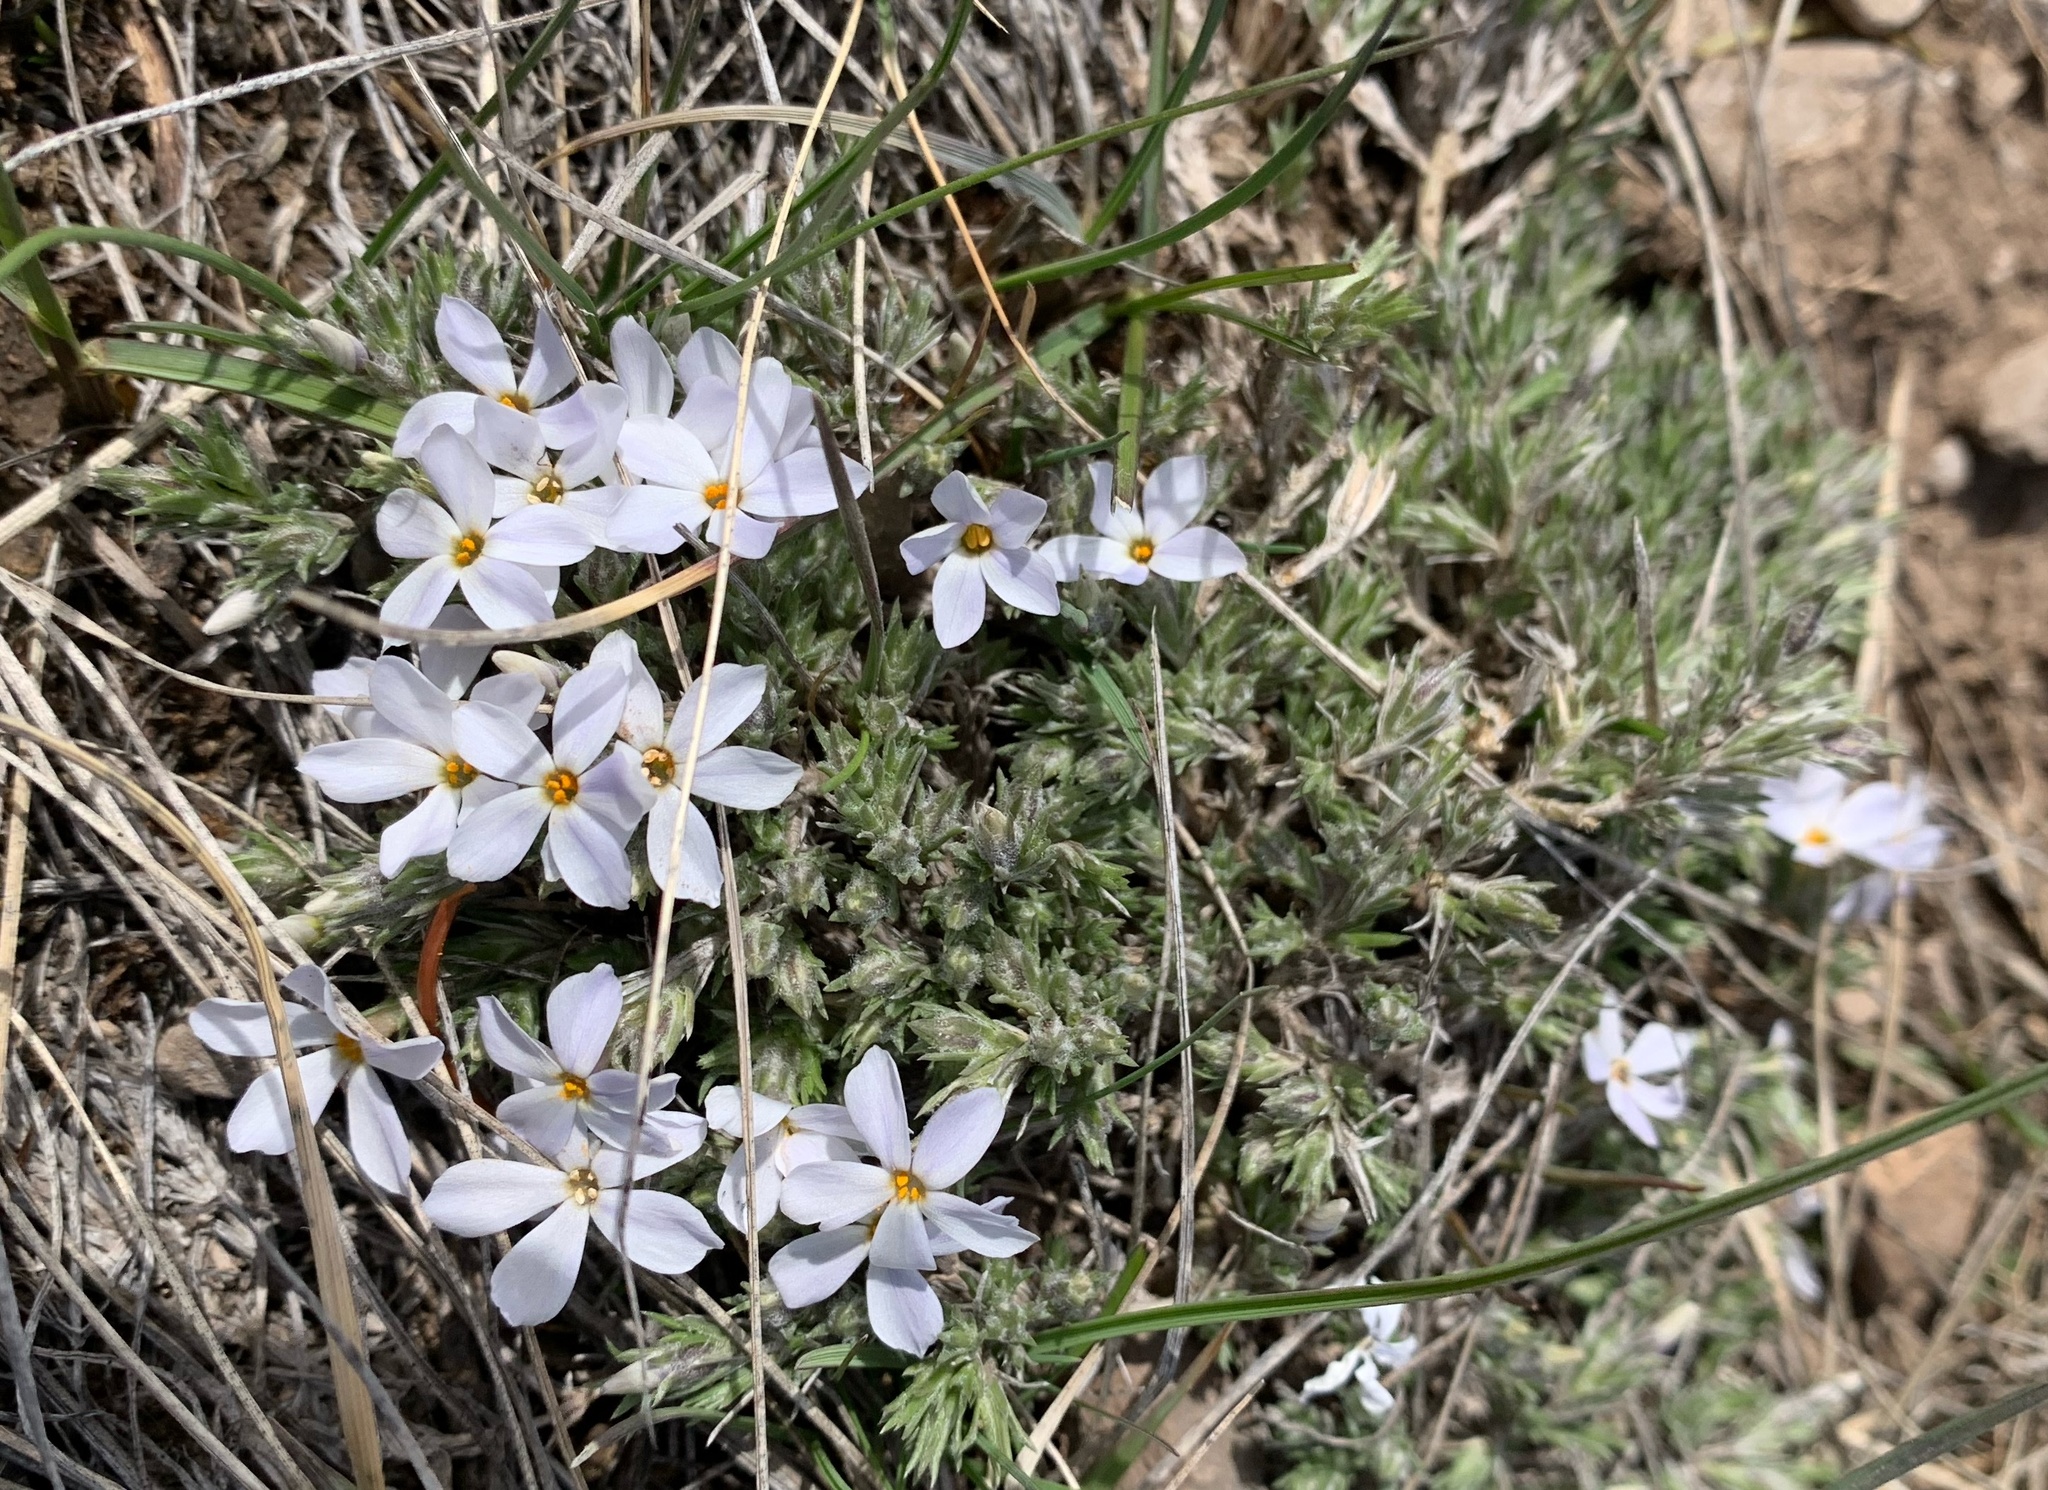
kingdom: Plantae
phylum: Tracheophyta
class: Magnoliopsida
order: Ericales
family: Polemoniaceae
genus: Phlox
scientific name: Phlox hoodii
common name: Moss phlox
